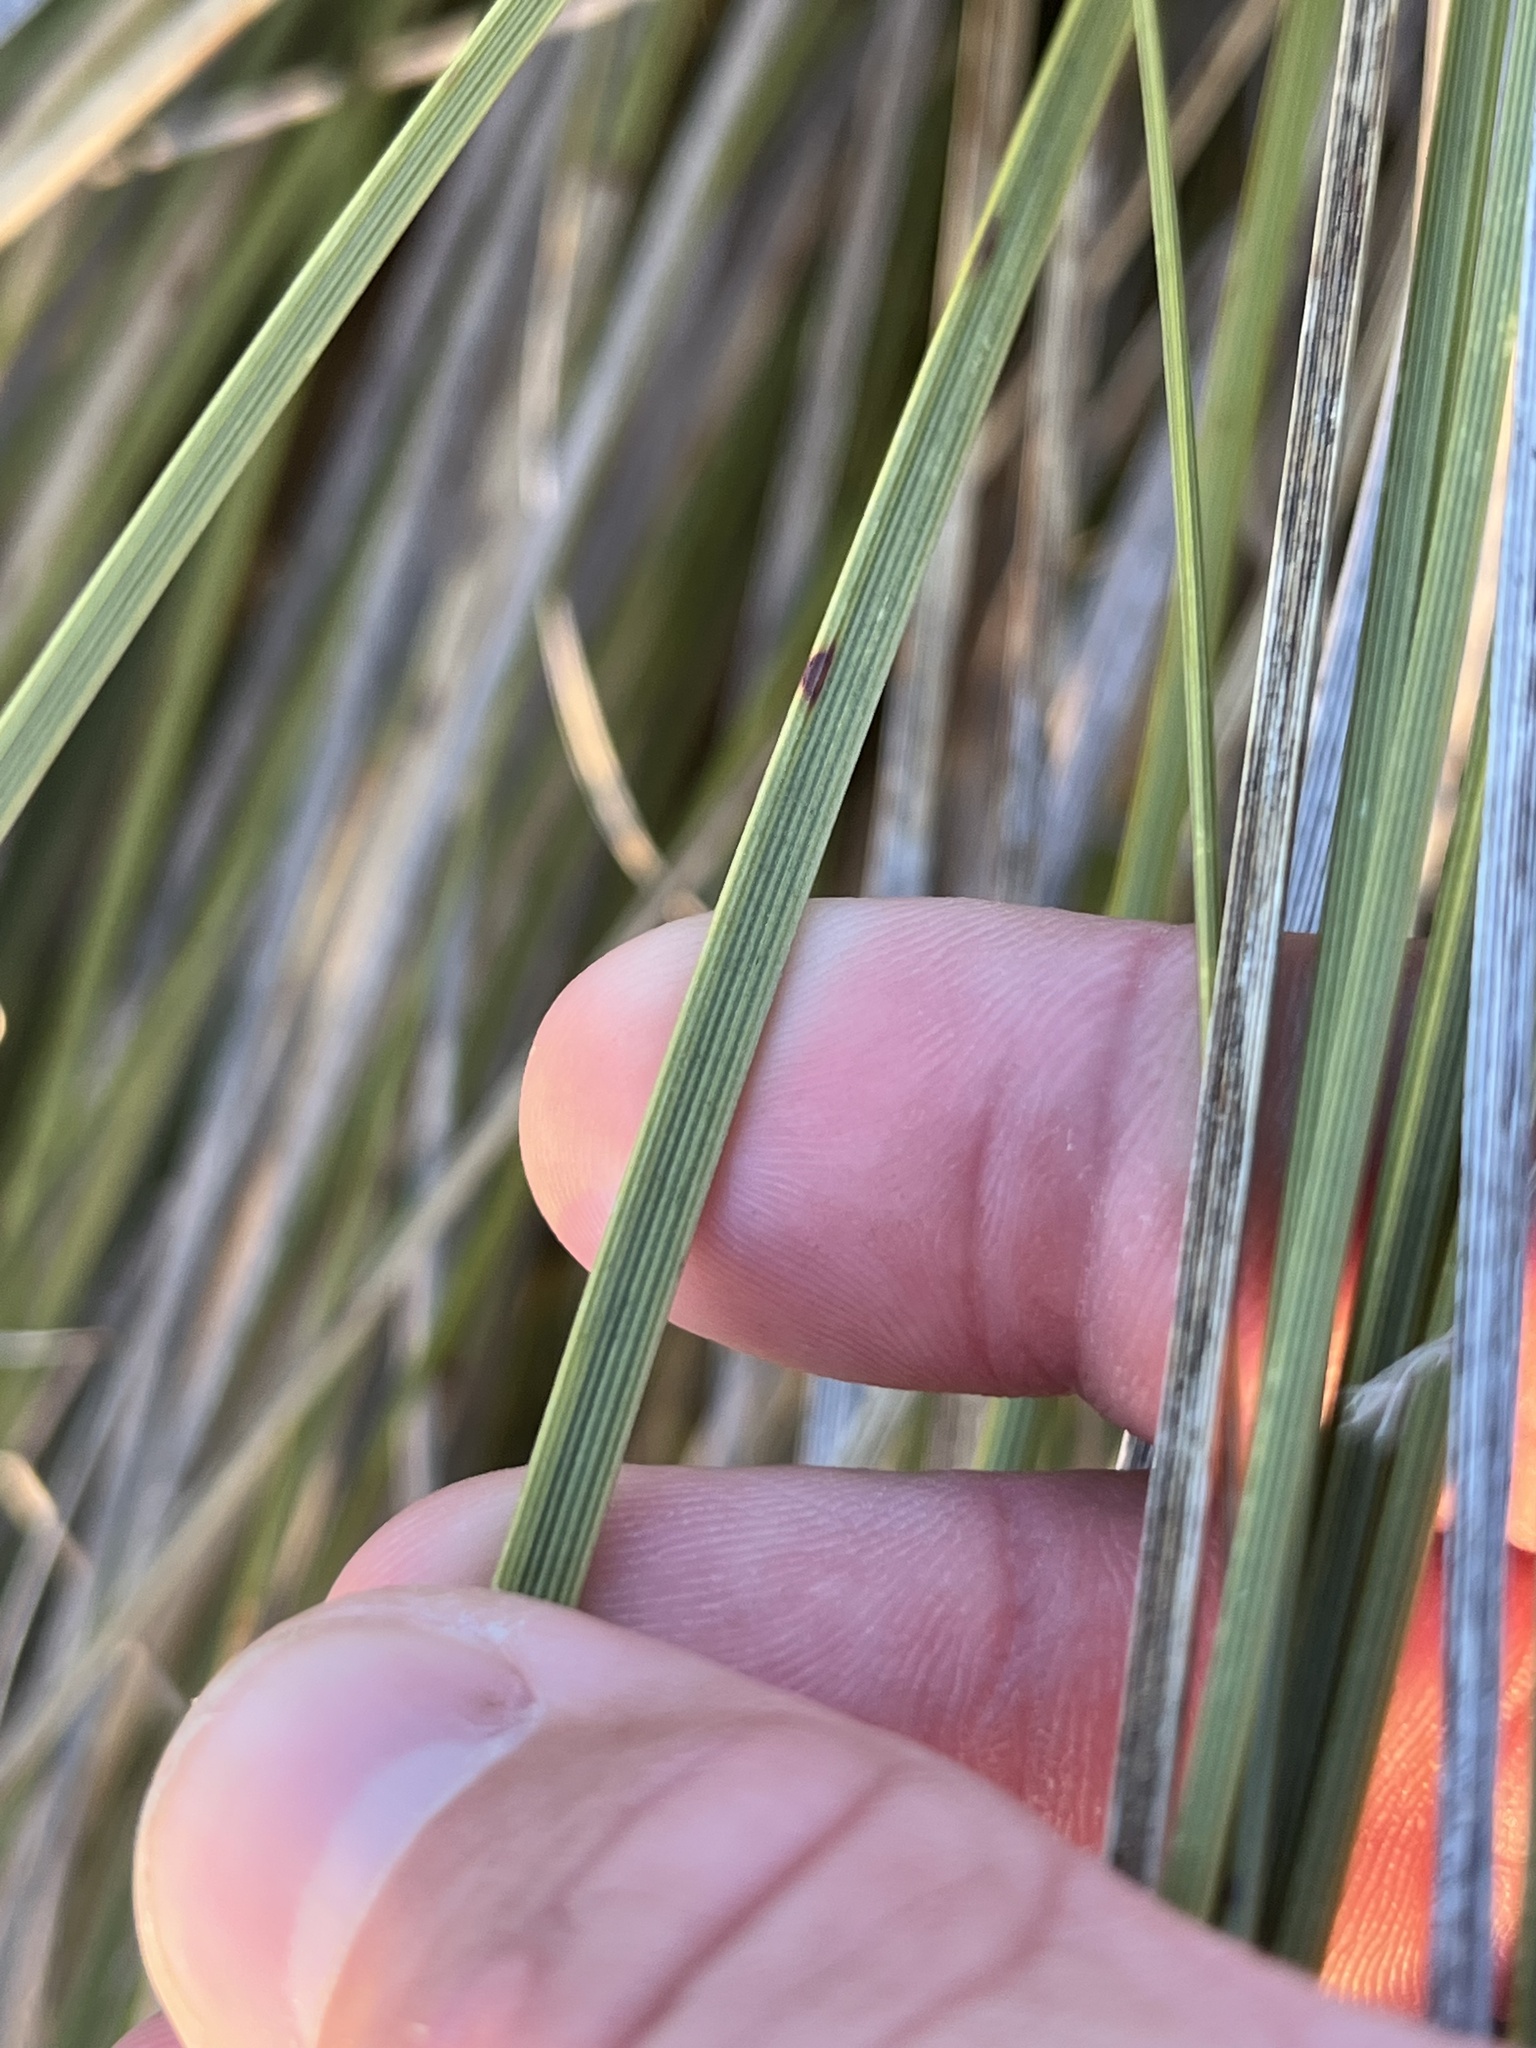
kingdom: Plantae
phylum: Tracheophyta
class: Liliopsida
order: Asparagales
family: Asparagaceae
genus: Nolina
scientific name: Nolina texana
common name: Texas sacahuiste
